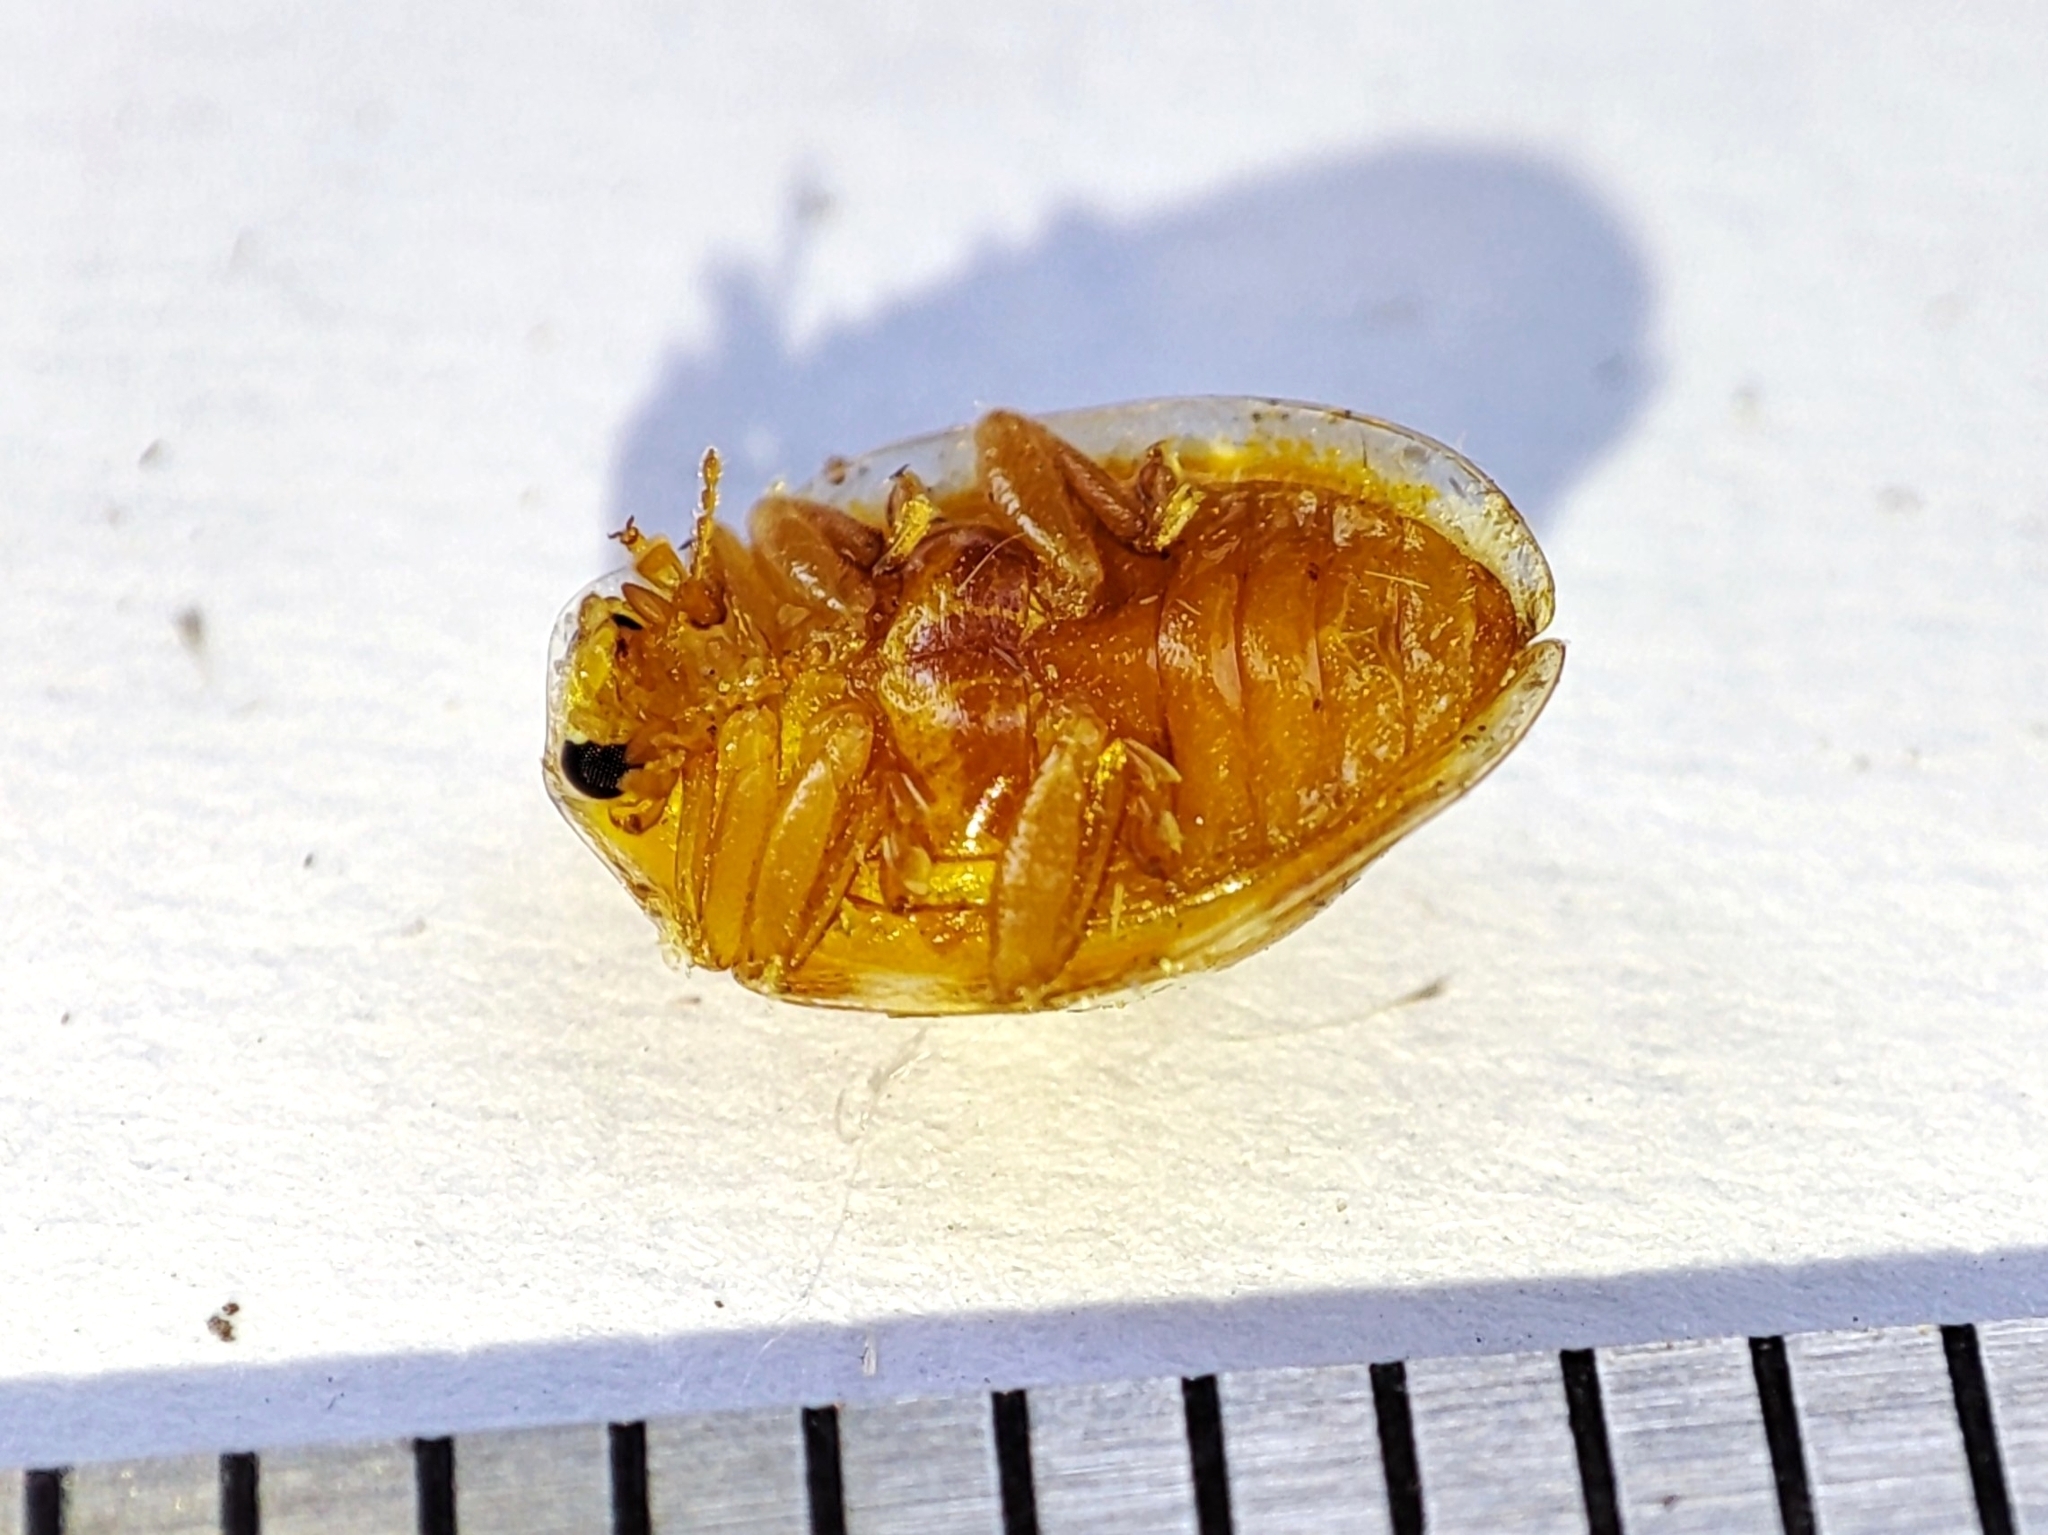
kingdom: Animalia
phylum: Arthropoda
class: Insecta
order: Coleoptera
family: Coccinellidae
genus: Halyzia
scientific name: Halyzia sedecimguttata
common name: Orange ladybird
